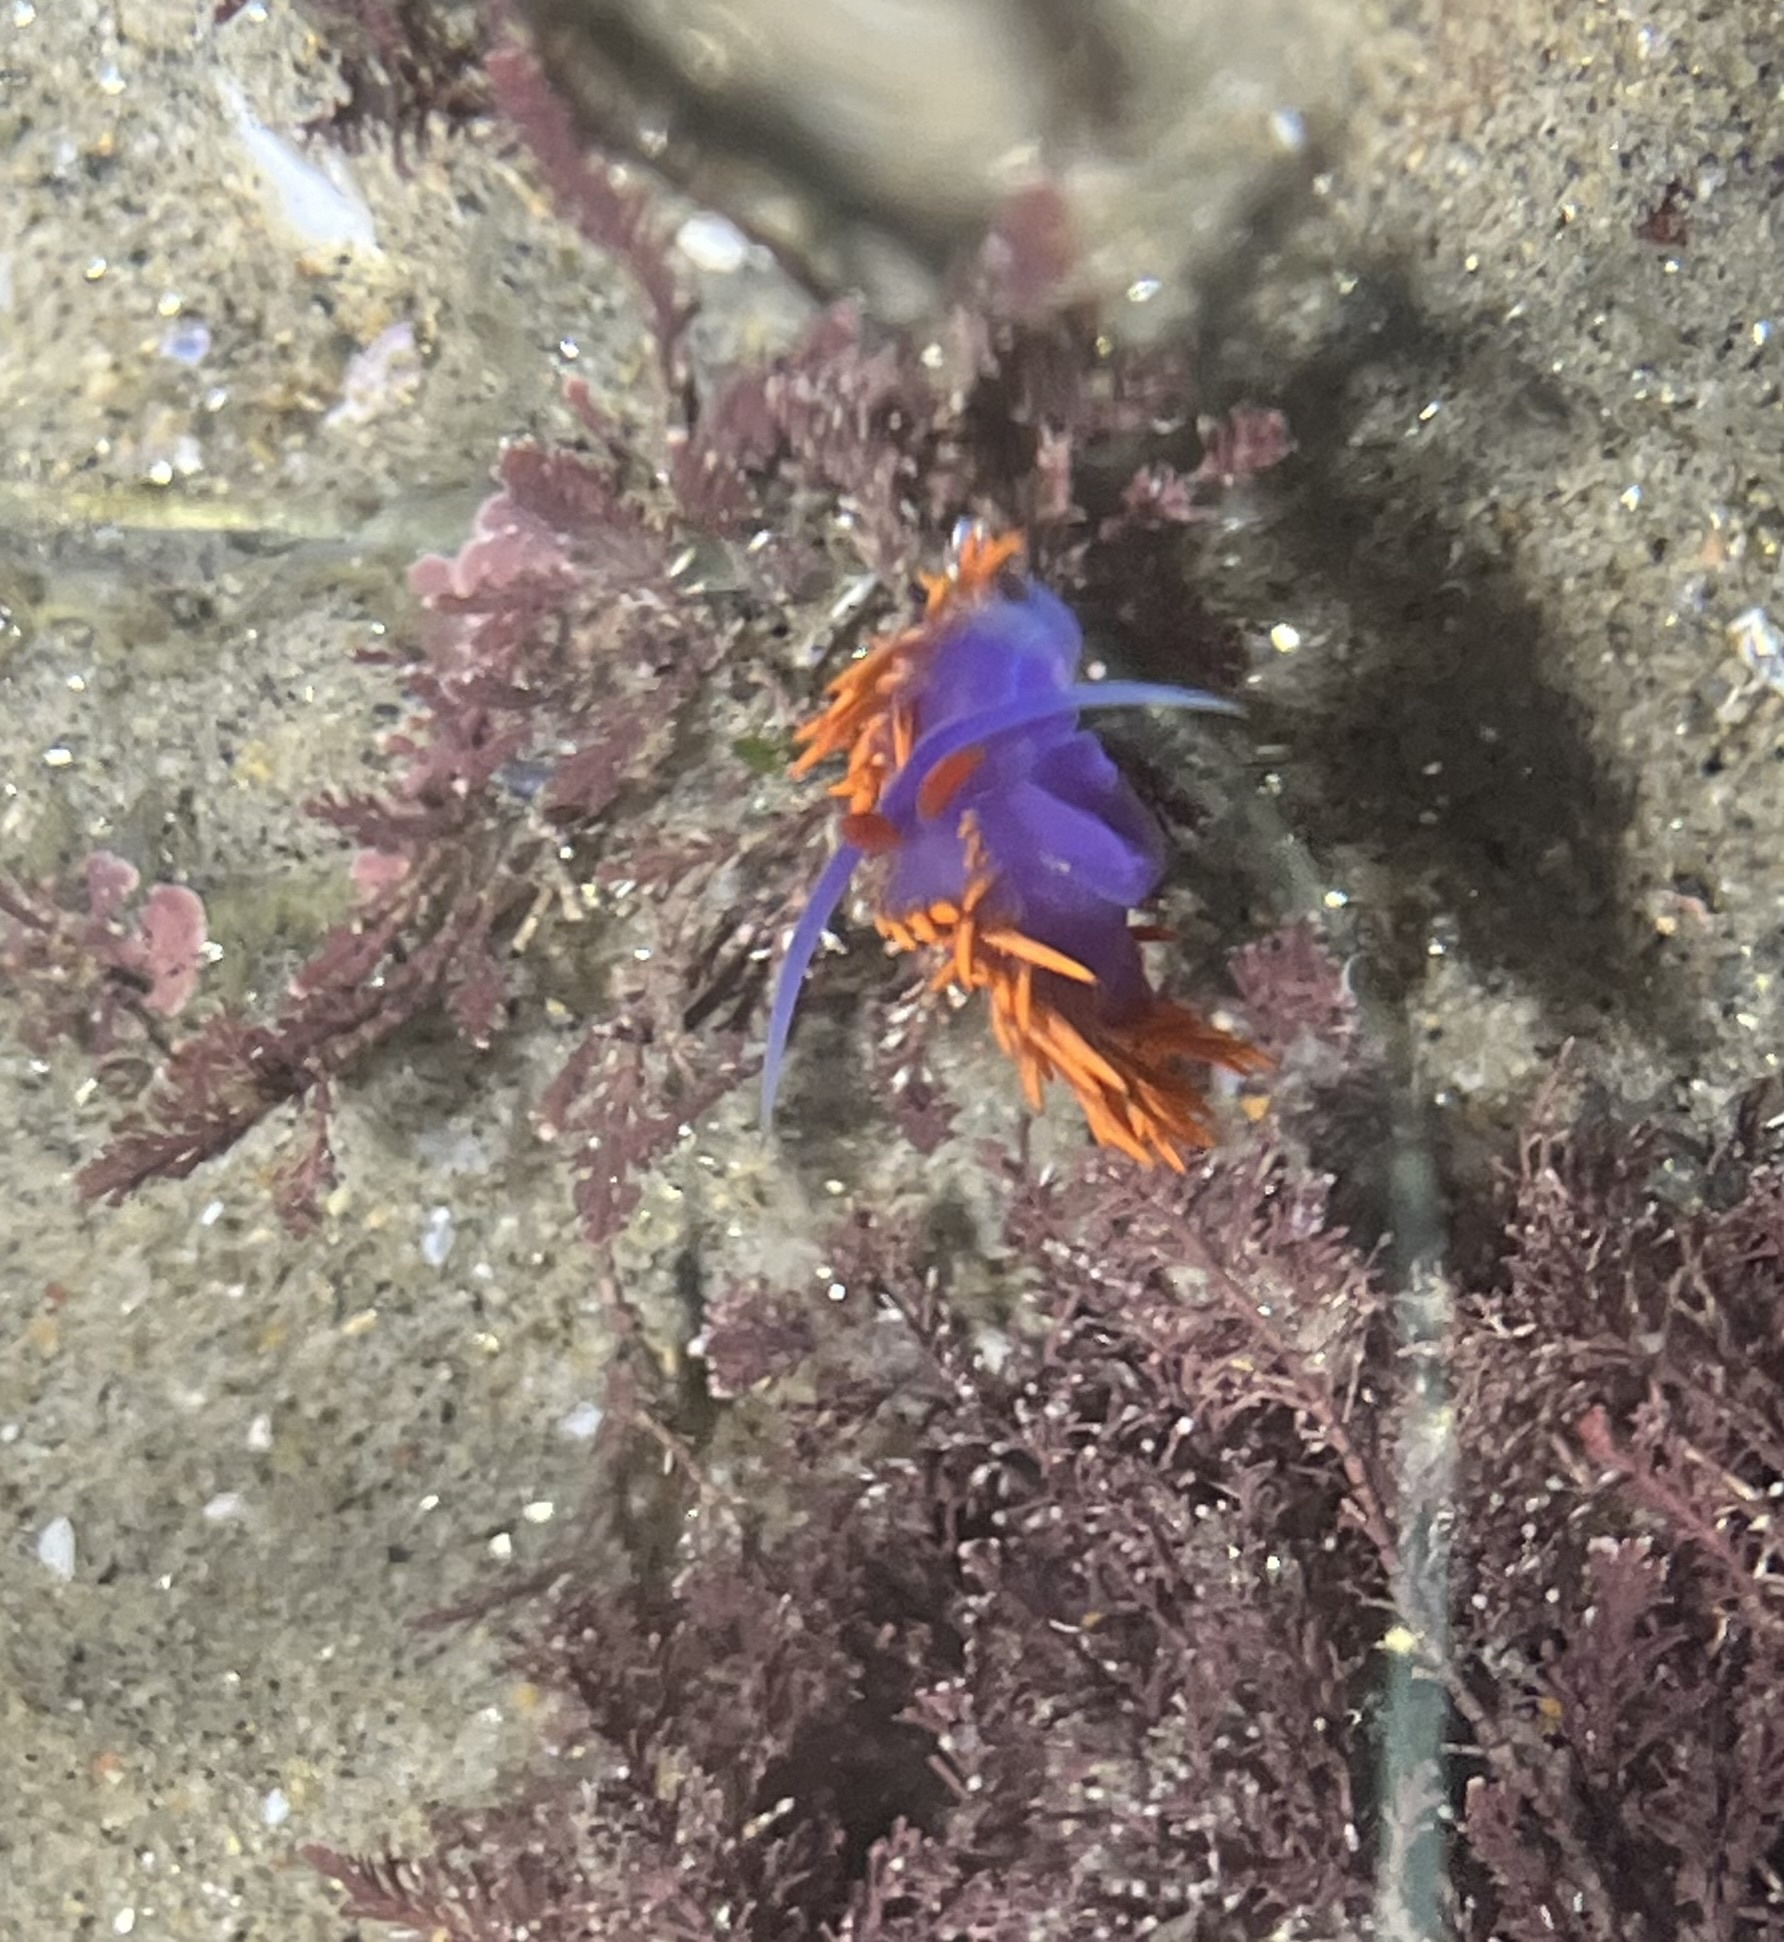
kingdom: Animalia
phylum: Mollusca
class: Gastropoda
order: Nudibranchia
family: Flabellinopsidae
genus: Flabellinopsis
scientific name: Flabellinopsis iodinea
